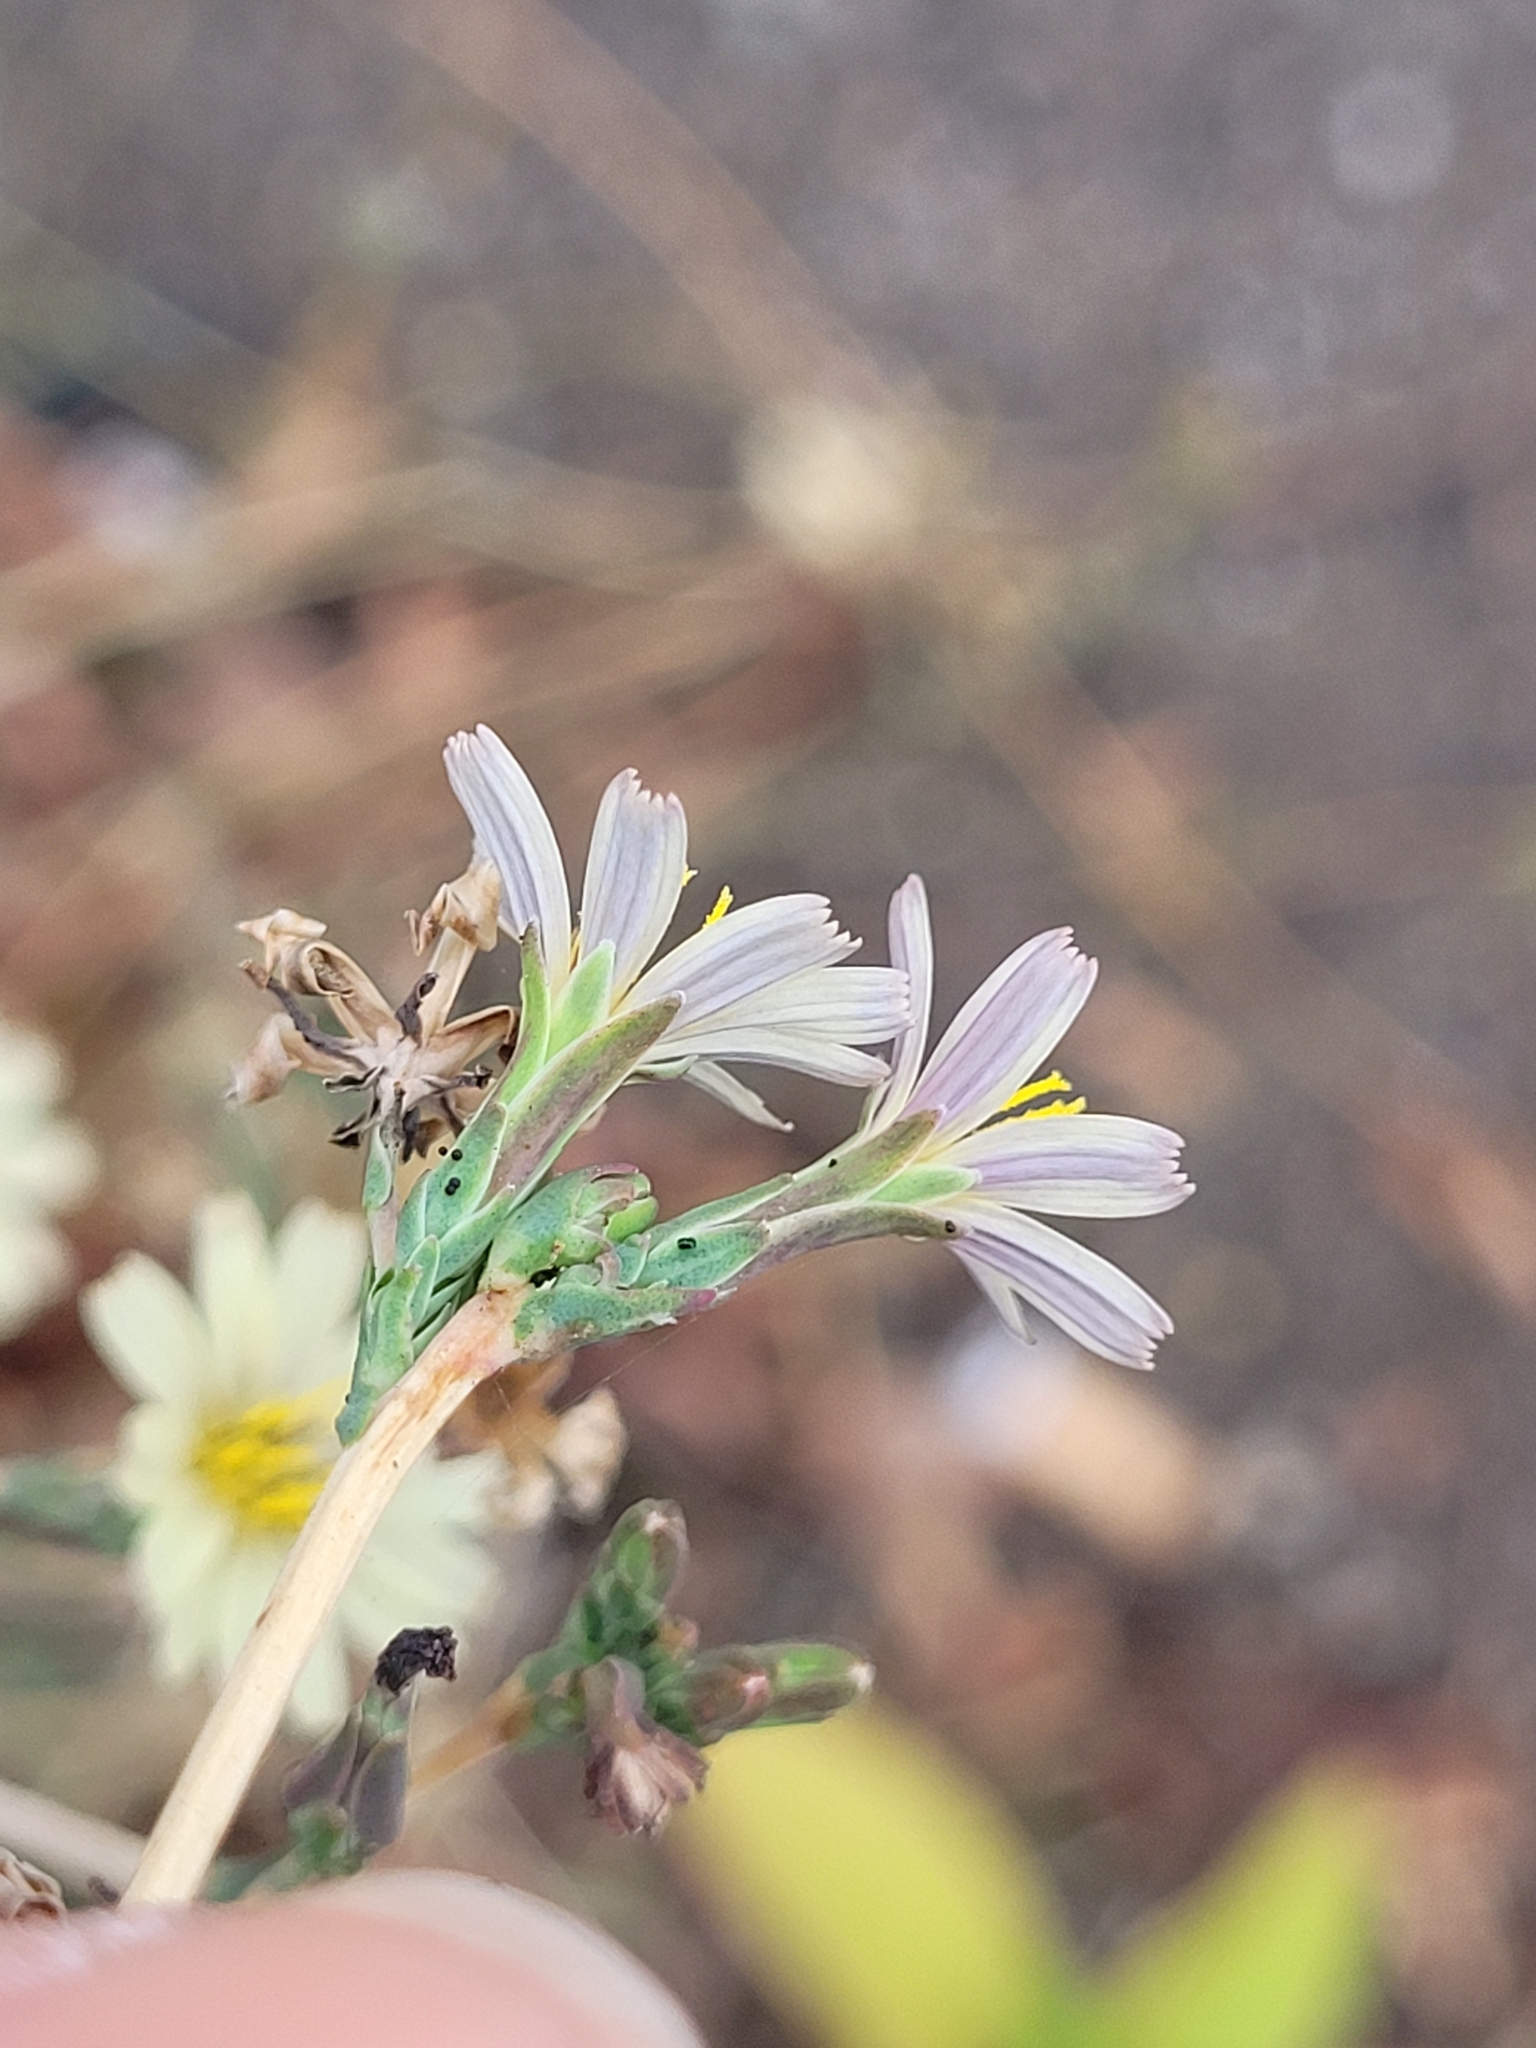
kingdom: Plantae
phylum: Tracheophyta
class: Magnoliopsida
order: Asterales
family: Asteraceae
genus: Lactuca
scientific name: Lactuca saligna
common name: Wild lettuce
